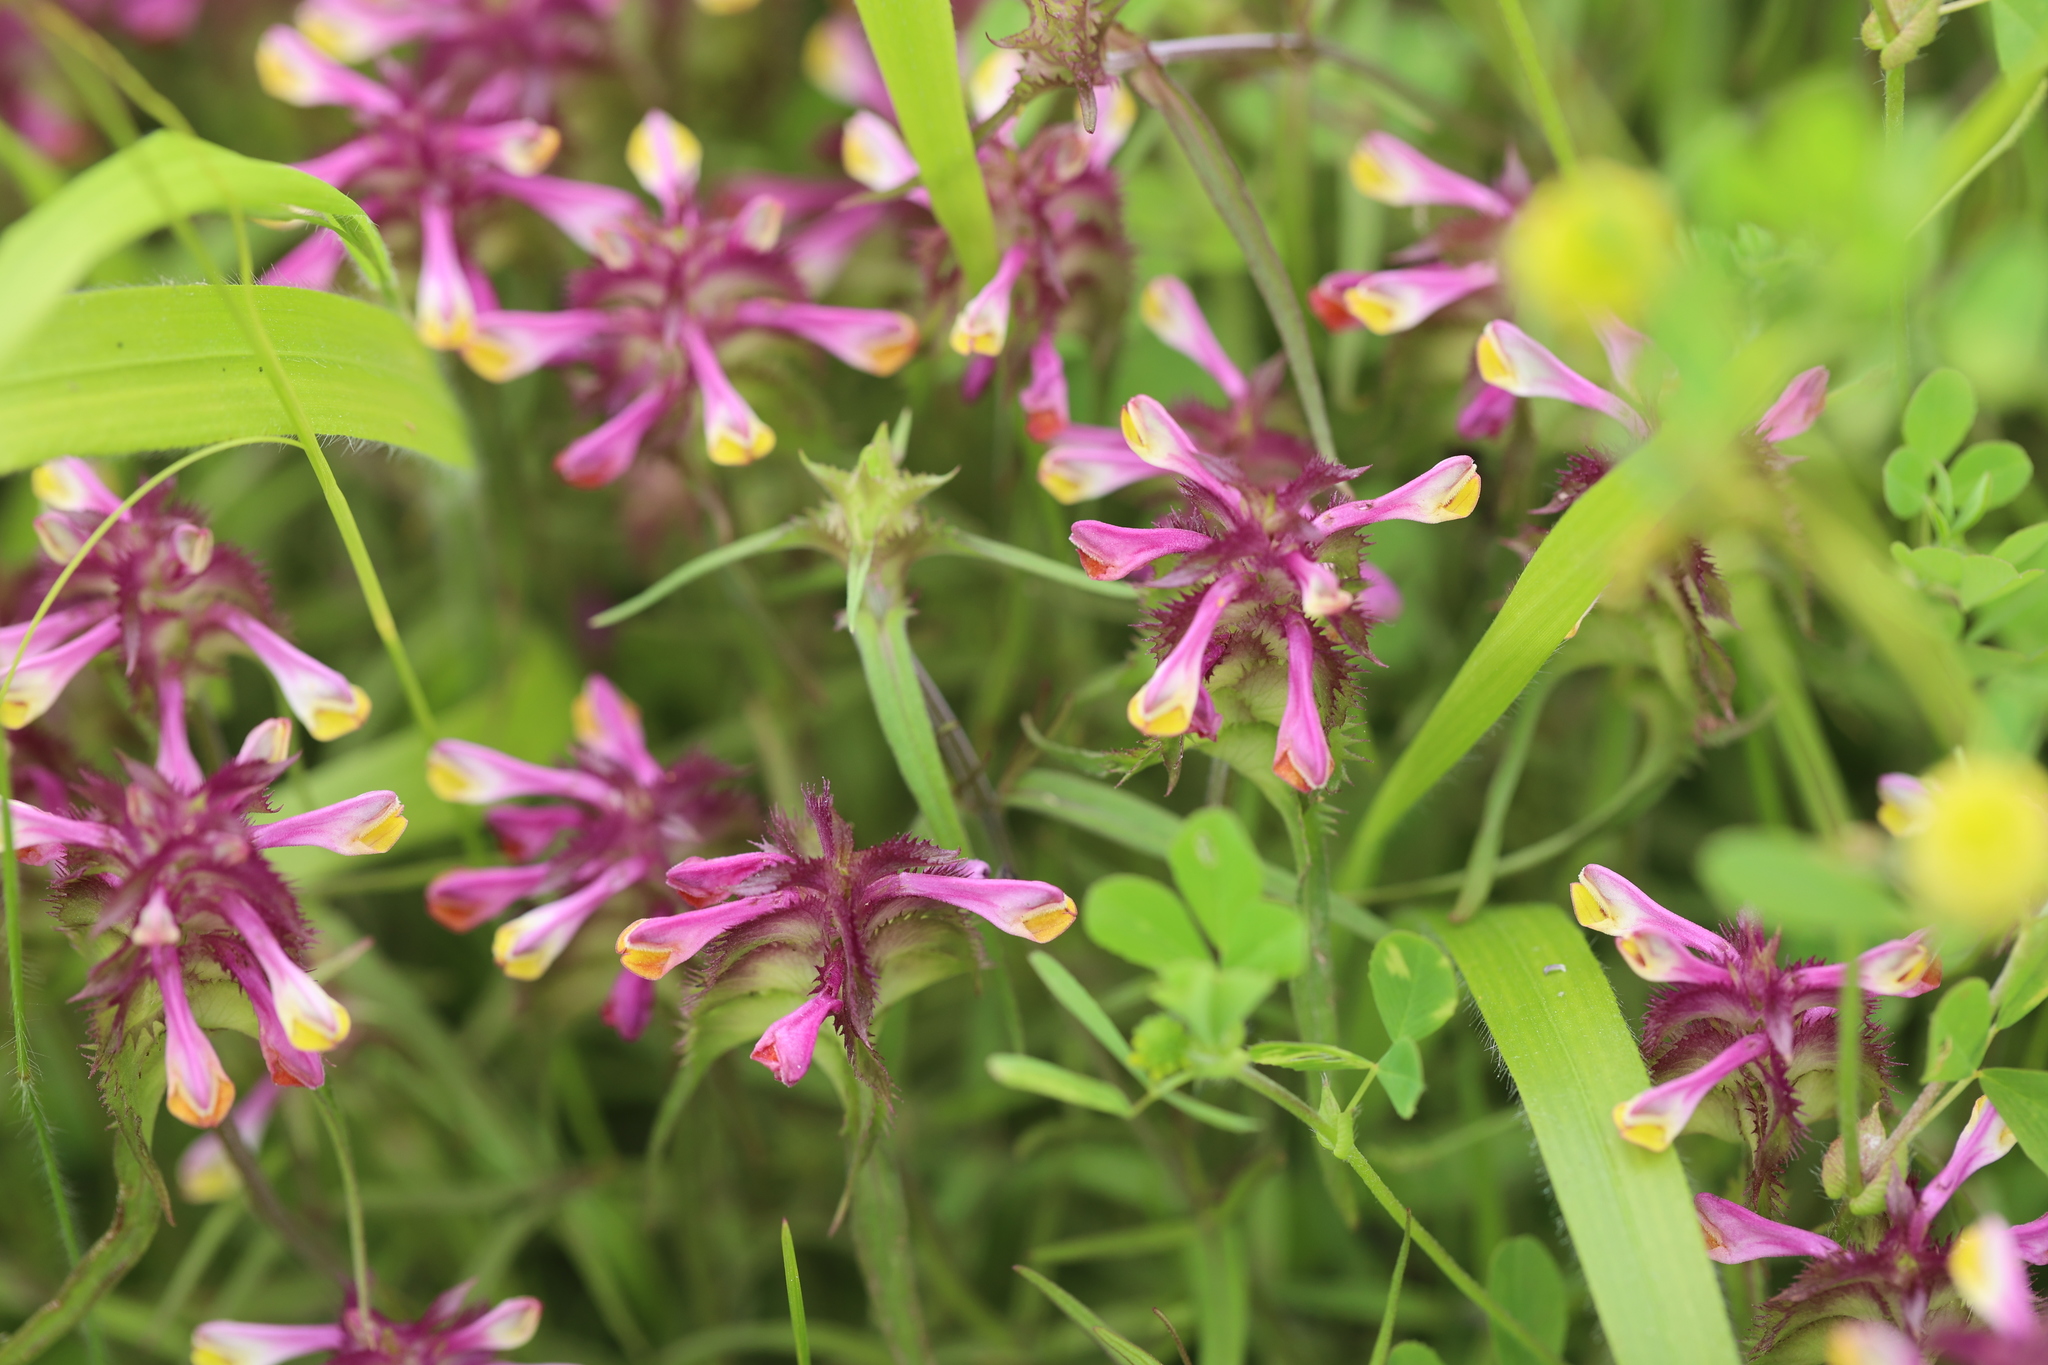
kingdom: Plantae
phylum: Tracheophyta
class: Magnoliopsida
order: Lamiales
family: Orobanchaceae
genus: Melampyrum
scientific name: Melampyrum cristatum
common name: Crested cow-wheat
